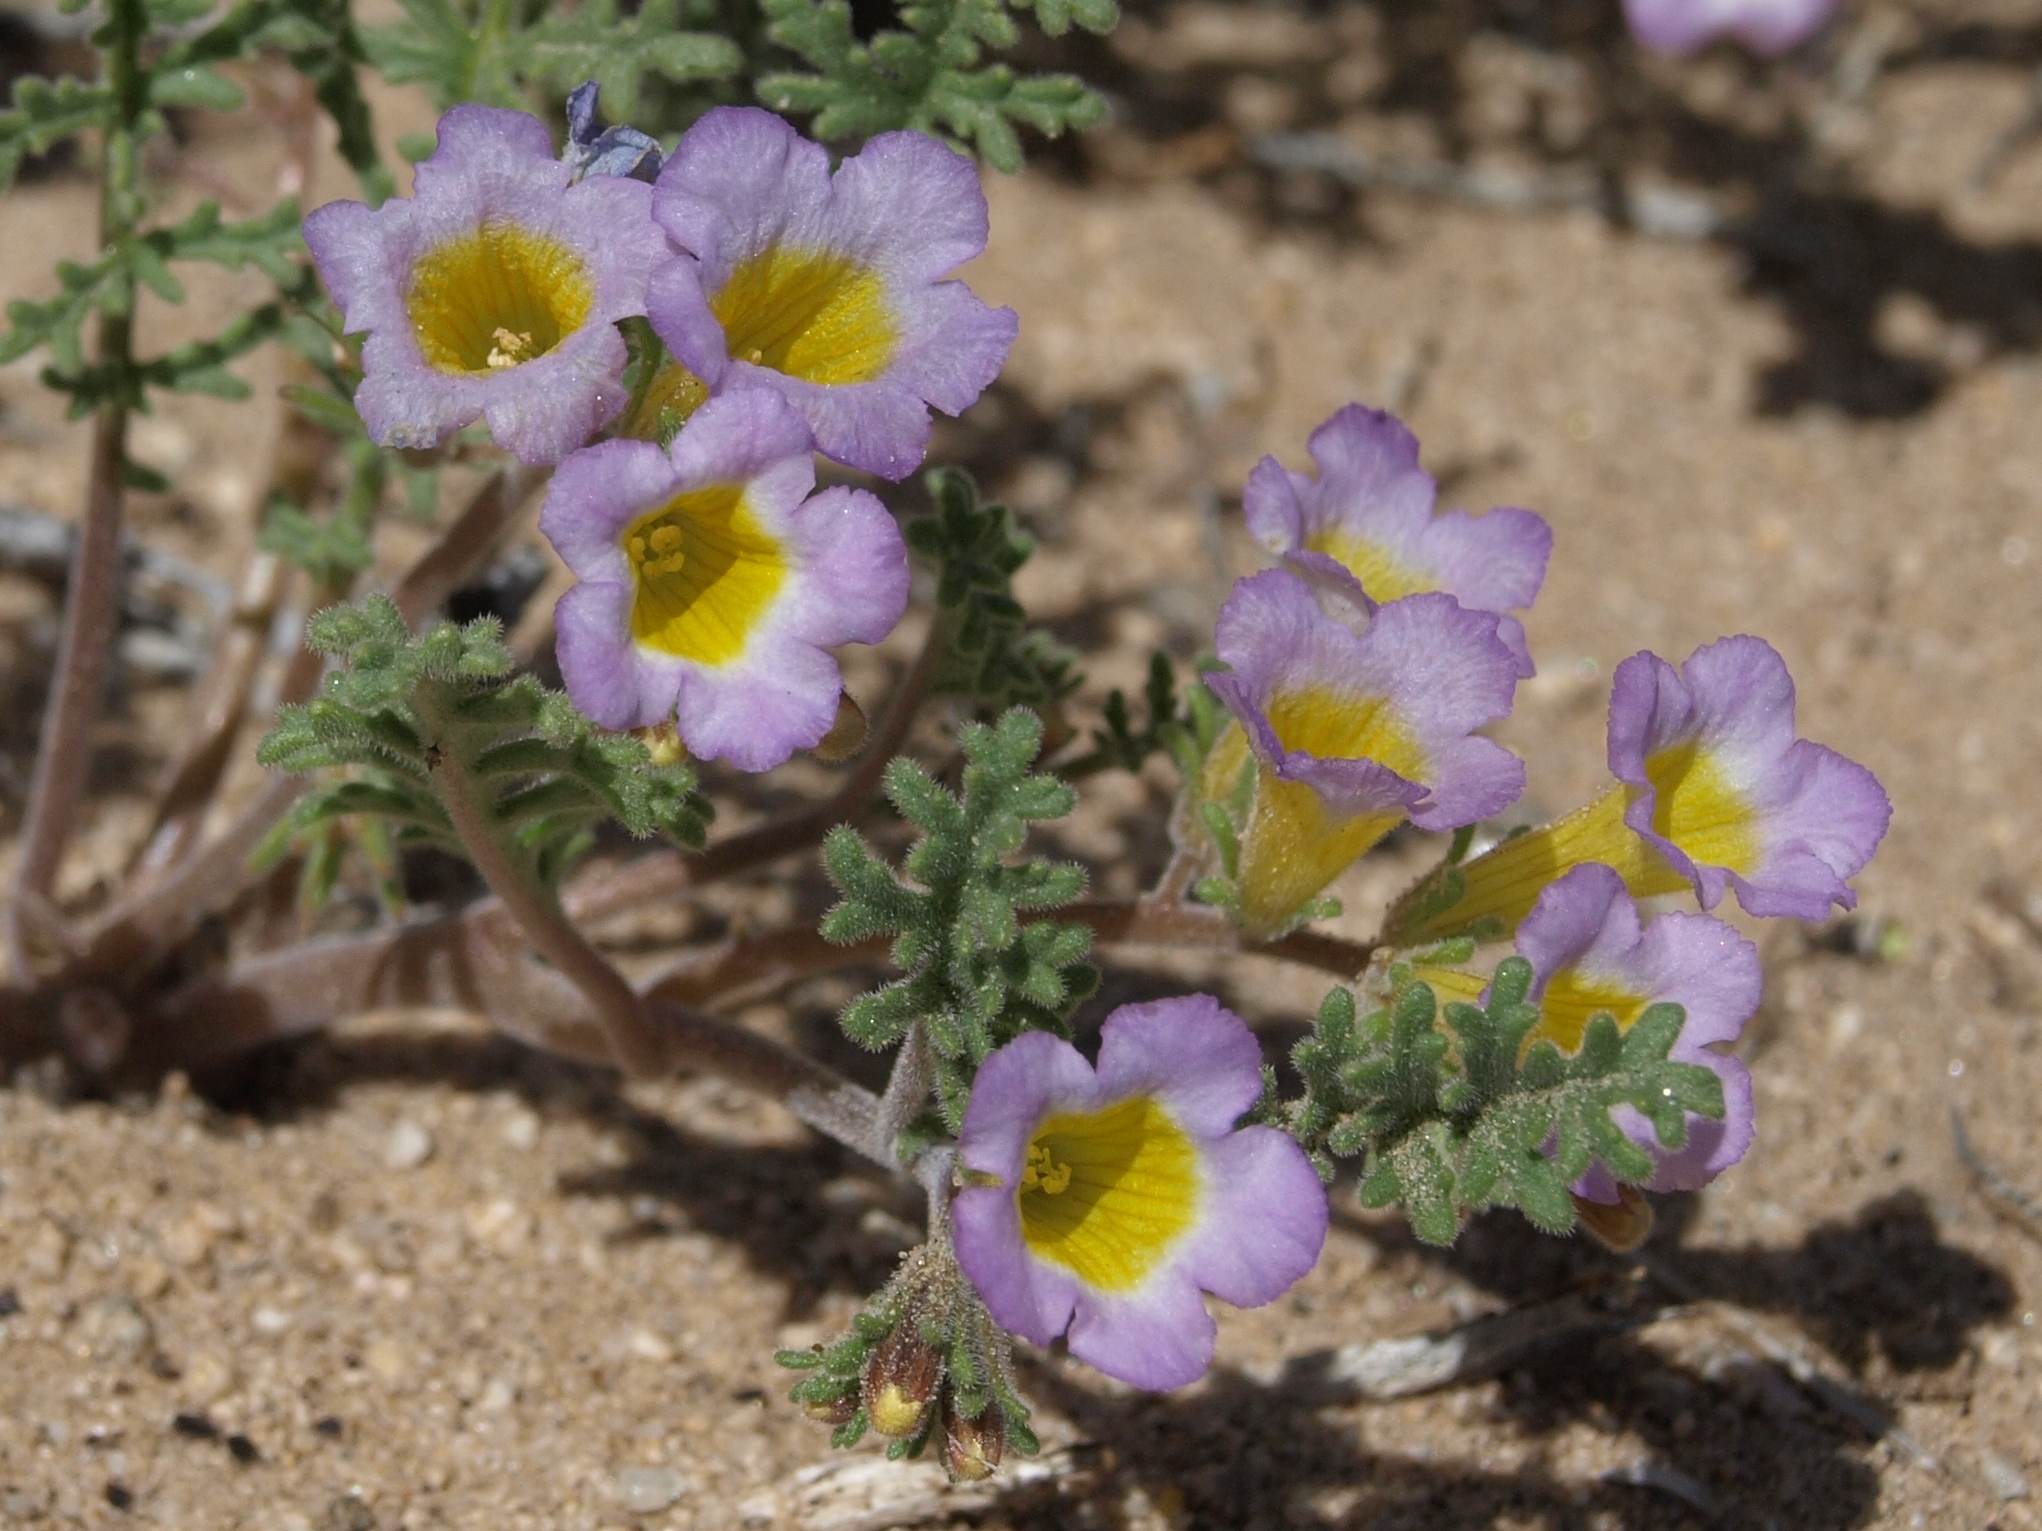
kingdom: Plantae
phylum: Tracheophyta
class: Magnoliopsida
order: Boraginales
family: Hydrophyllaceae
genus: Phacelia
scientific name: Phacelia bicolor
